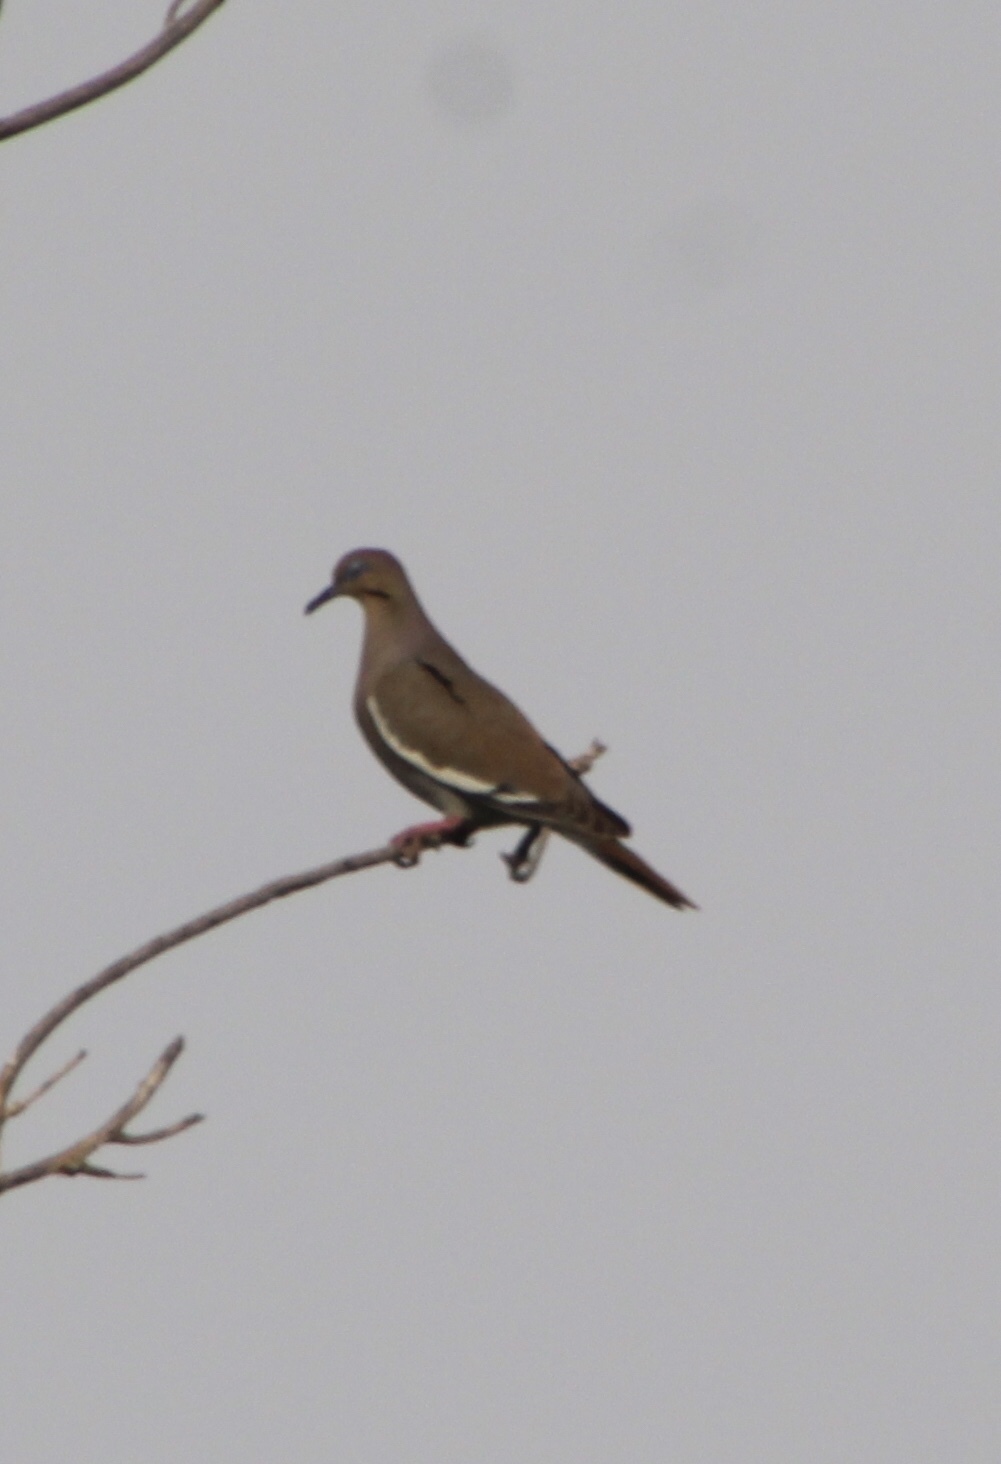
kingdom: Animalia
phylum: Chordata
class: Aves
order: Columbiformes
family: Columbidae
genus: Zenaida
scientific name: Zenaida asiatica
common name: White-winged dove
